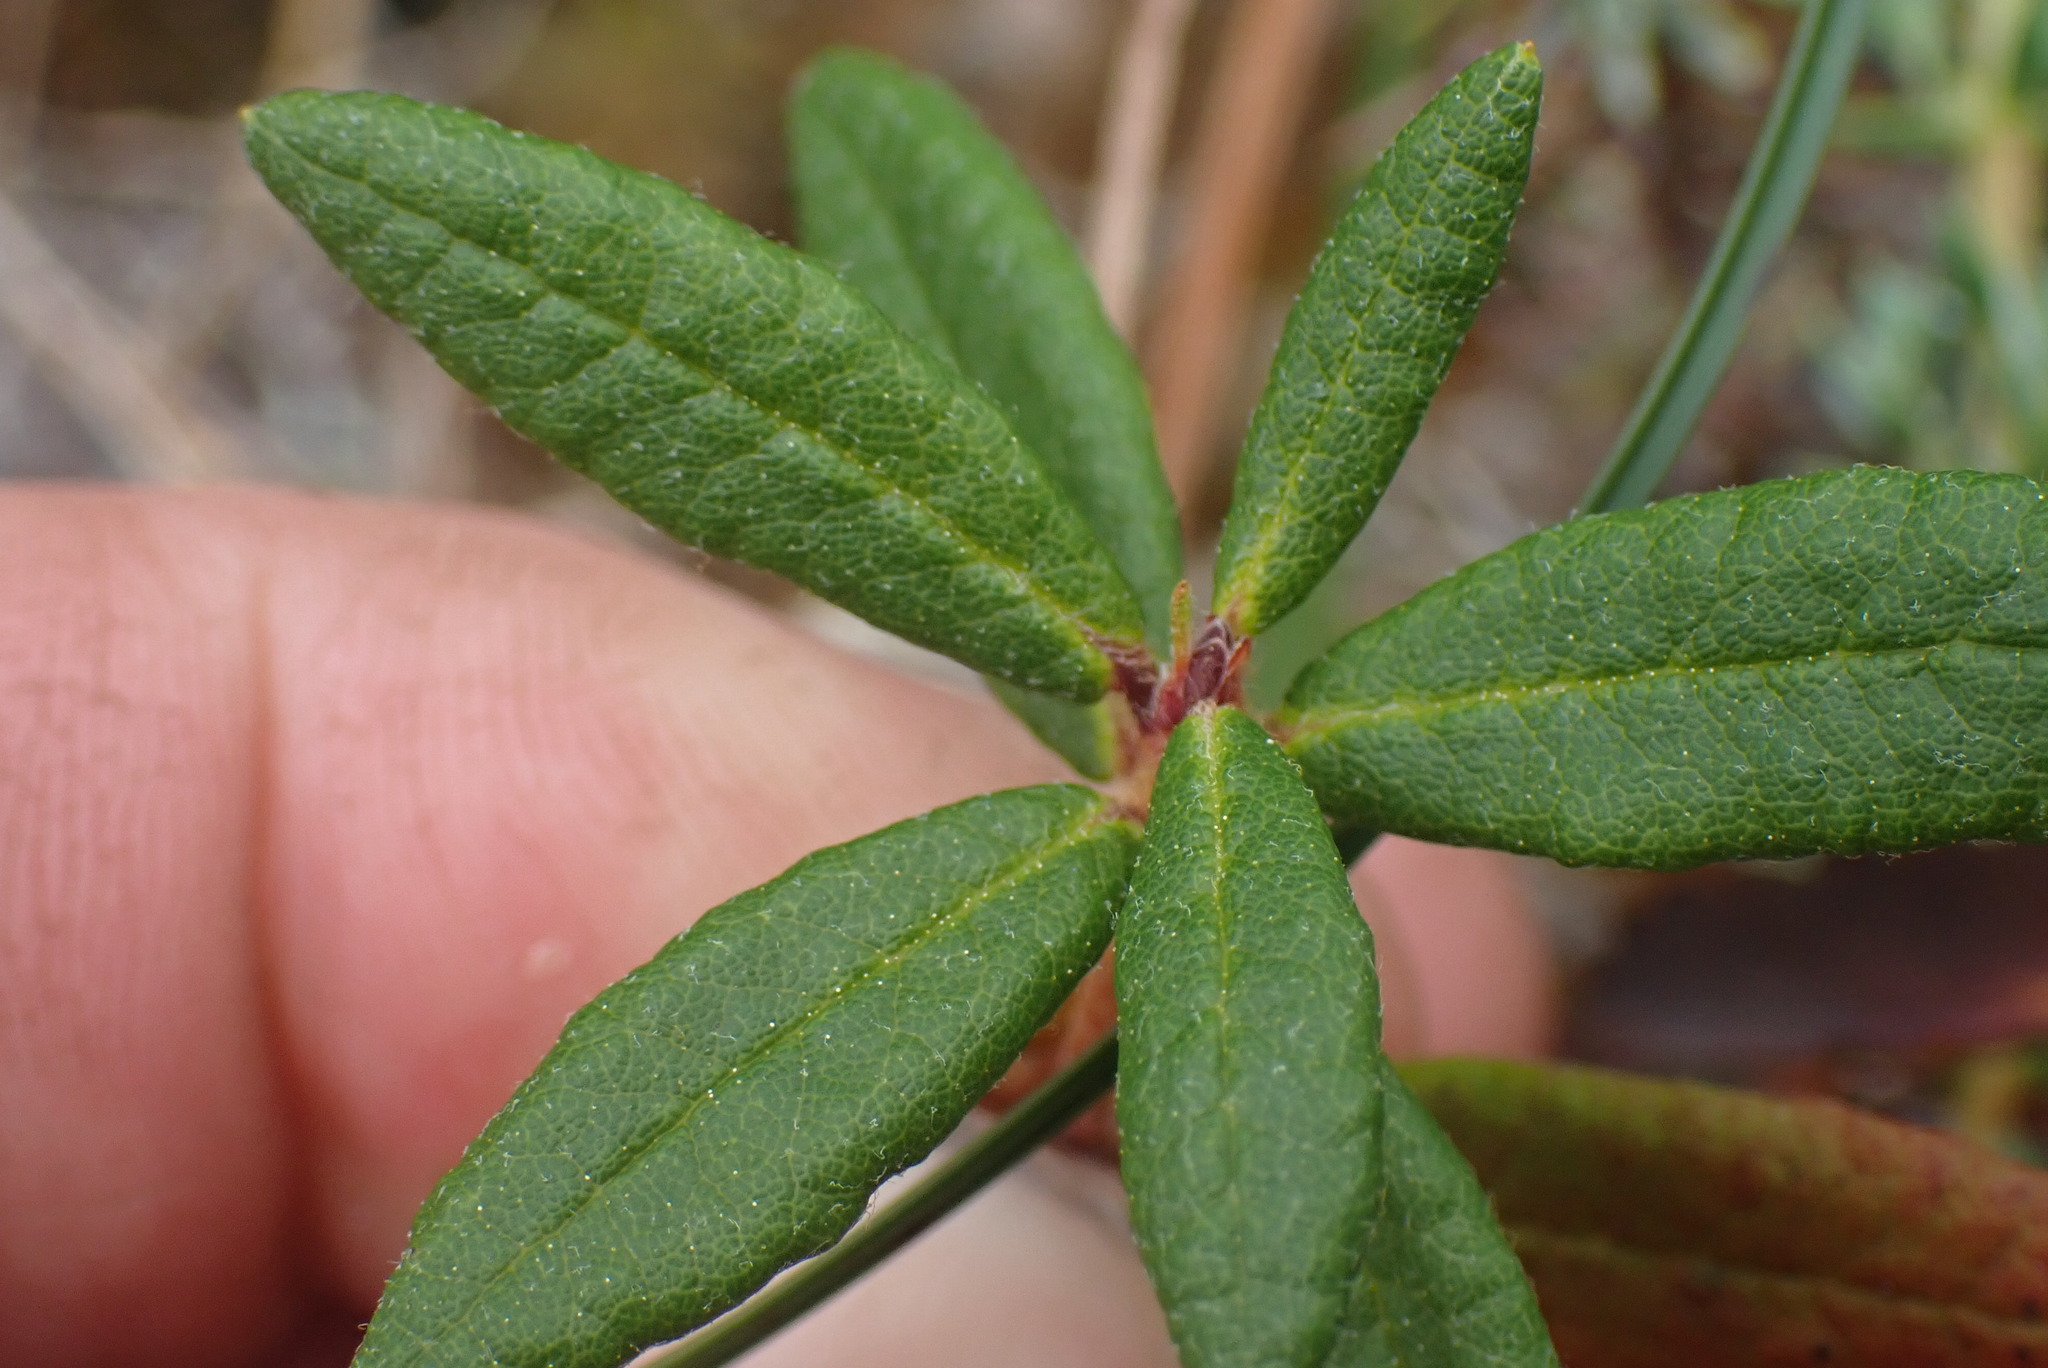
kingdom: Plantae
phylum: Tracheophyta
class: Magnoliopsida
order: Ericales
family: Ericaceae
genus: Rhododendron
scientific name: Rhododendron groenlandicum
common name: Bog labrador tea
